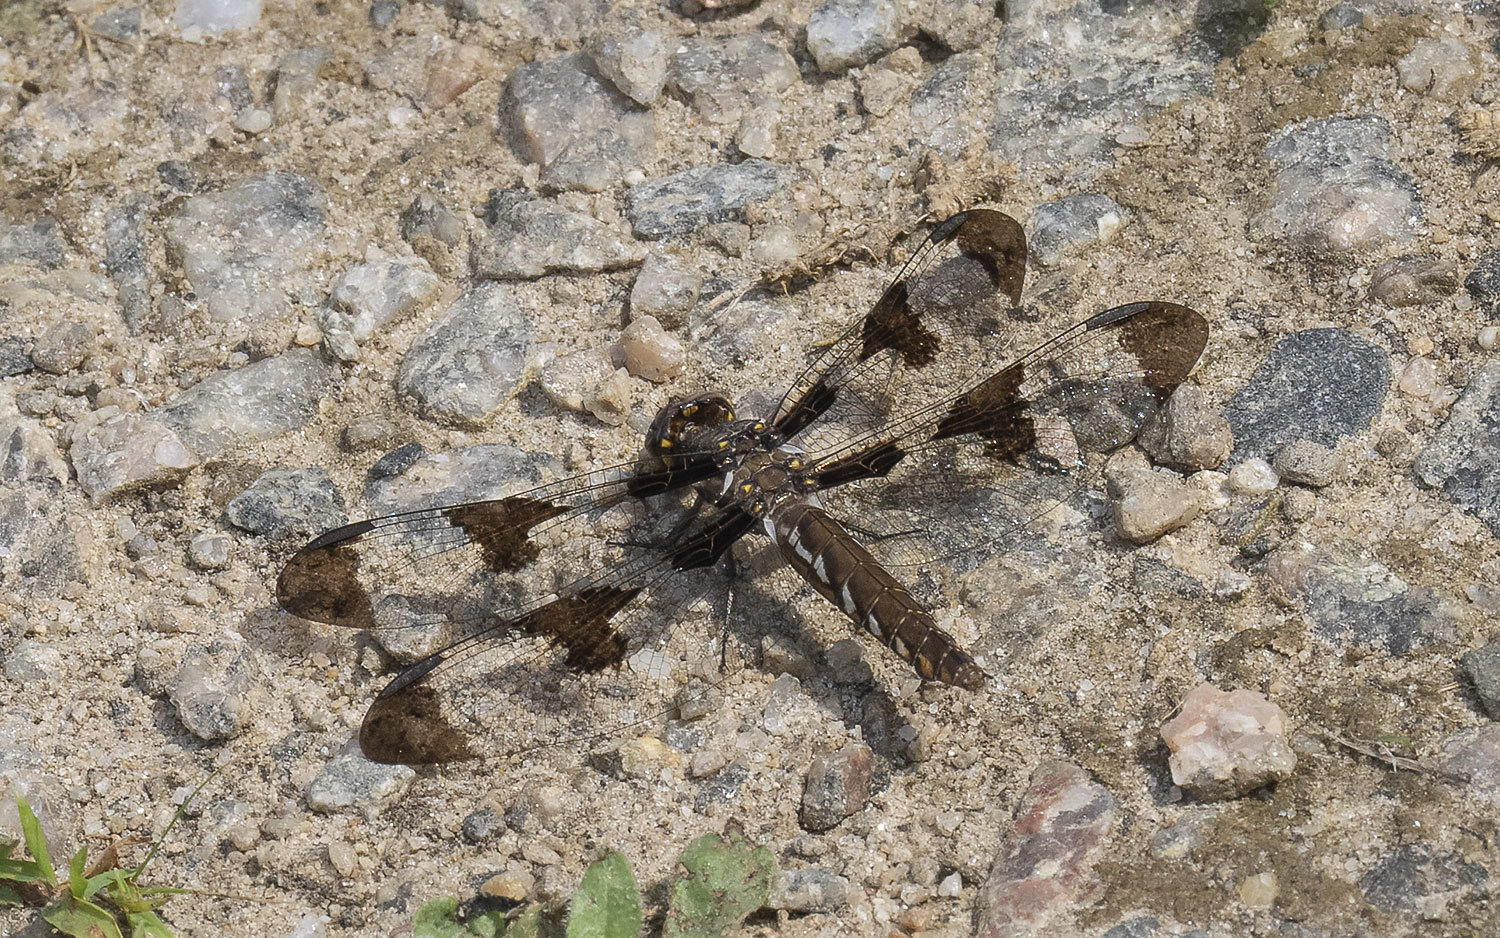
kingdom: Animalia
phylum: Arthropoda
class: Insecta
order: Odonata
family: Libellulidae
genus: Plathemis
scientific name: Plathemis lydia
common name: Common whitetail
